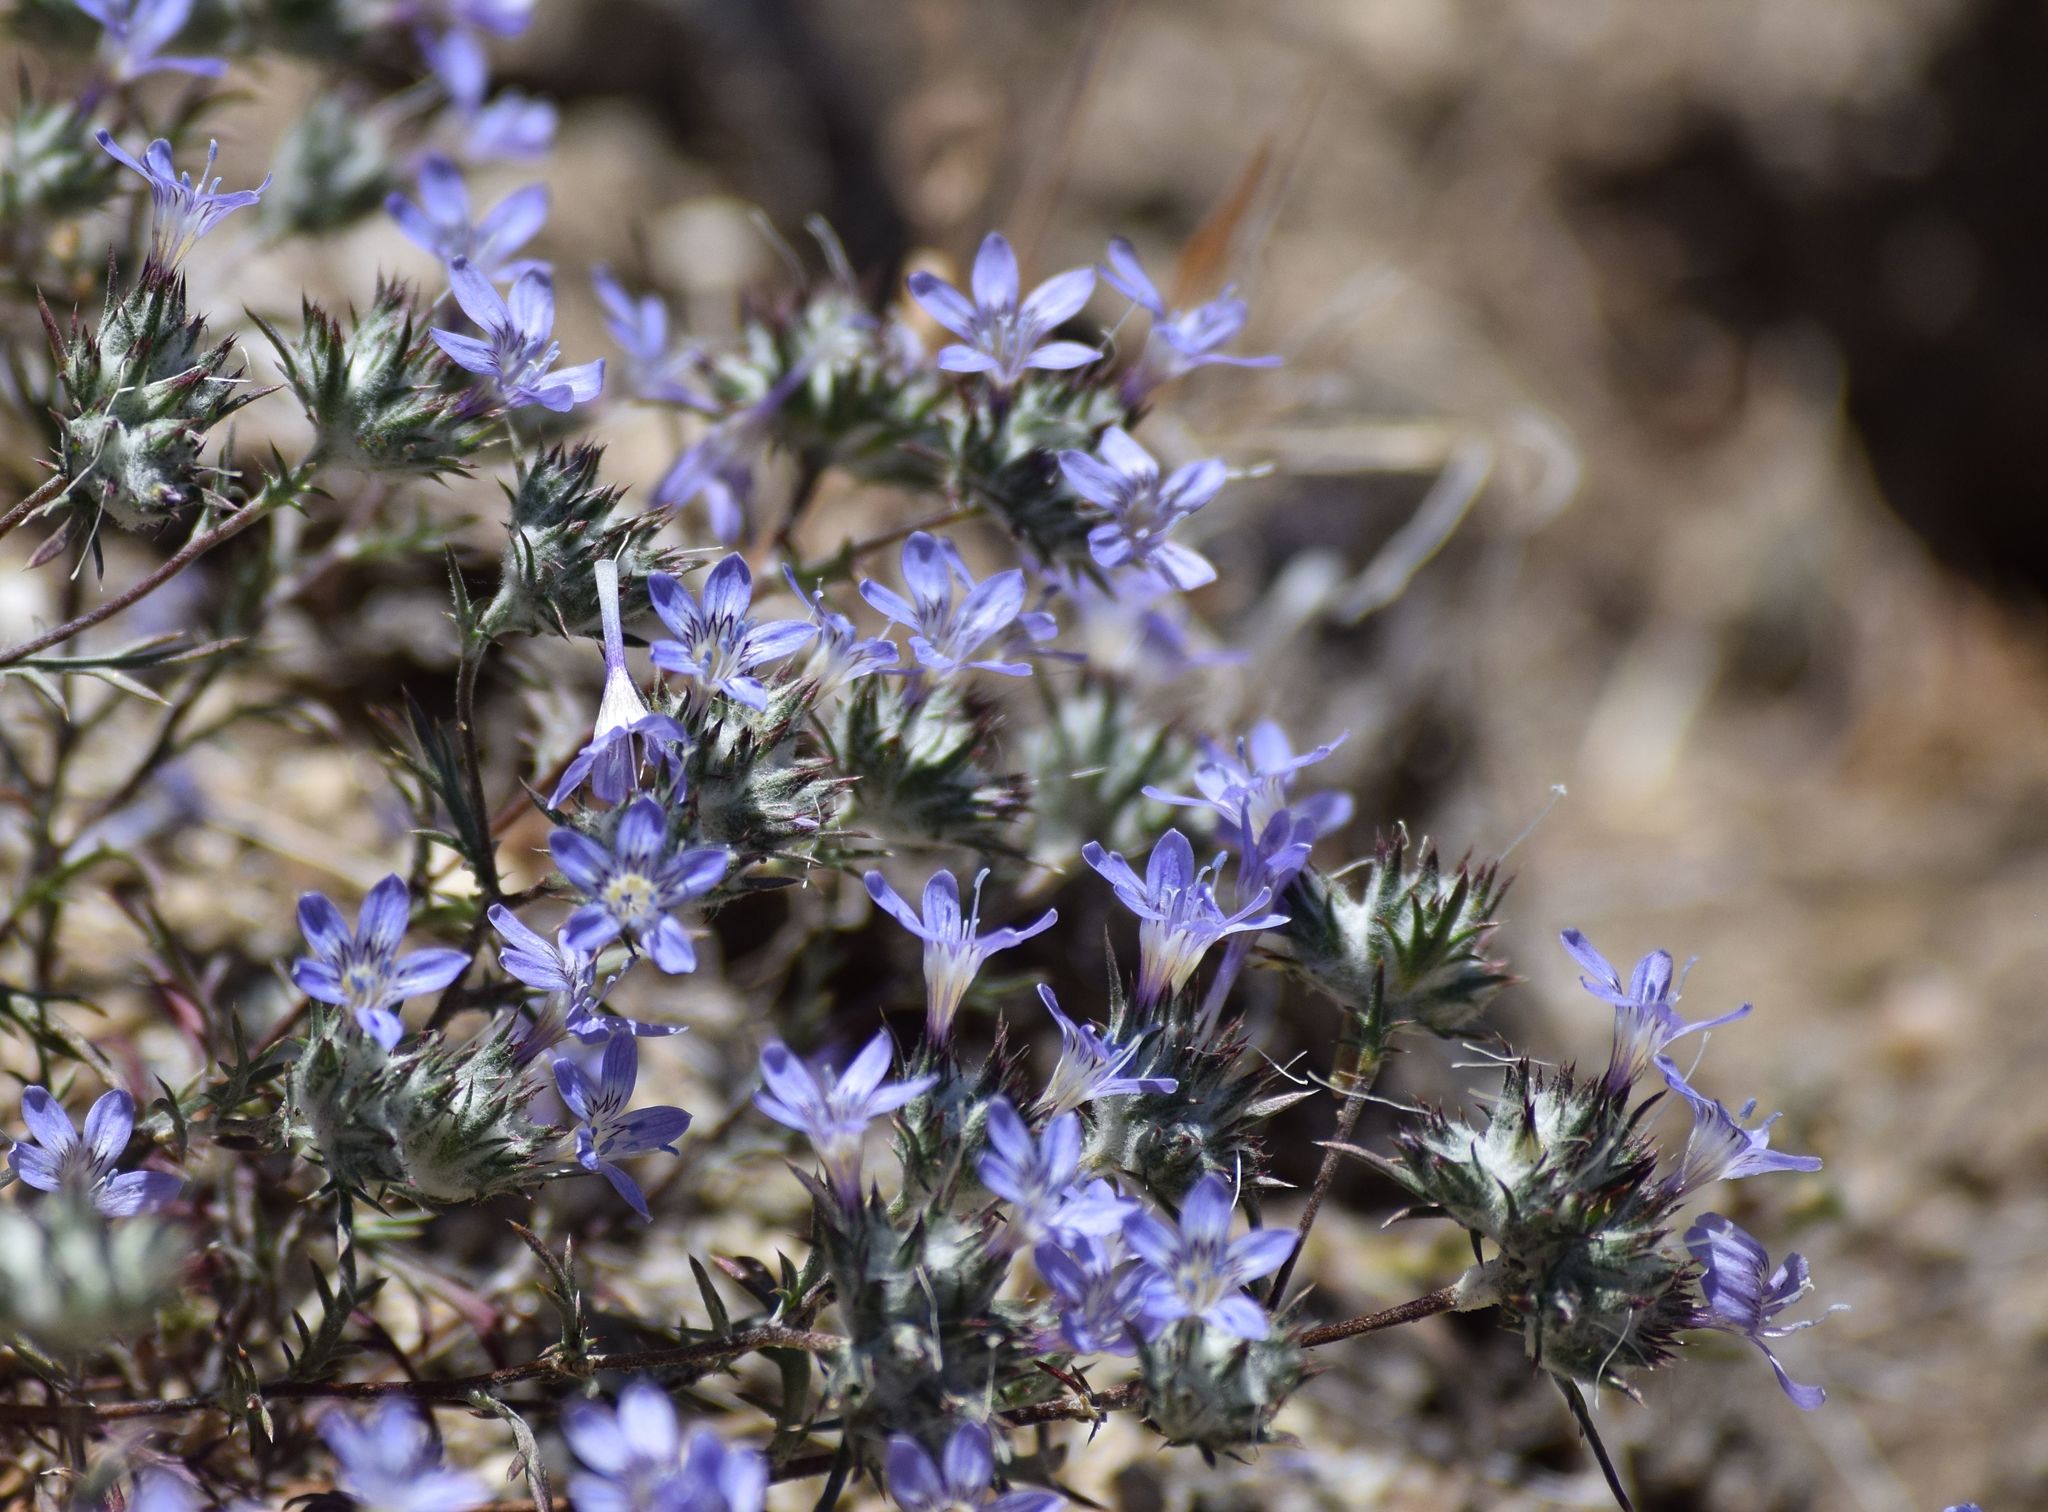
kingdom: Plantae
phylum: Tracheophyta
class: Magnoliopsida
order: Ericales
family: Polemoniaceae
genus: Eriastrum
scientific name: Eriastrum eremicum
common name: Desert eriastrum
